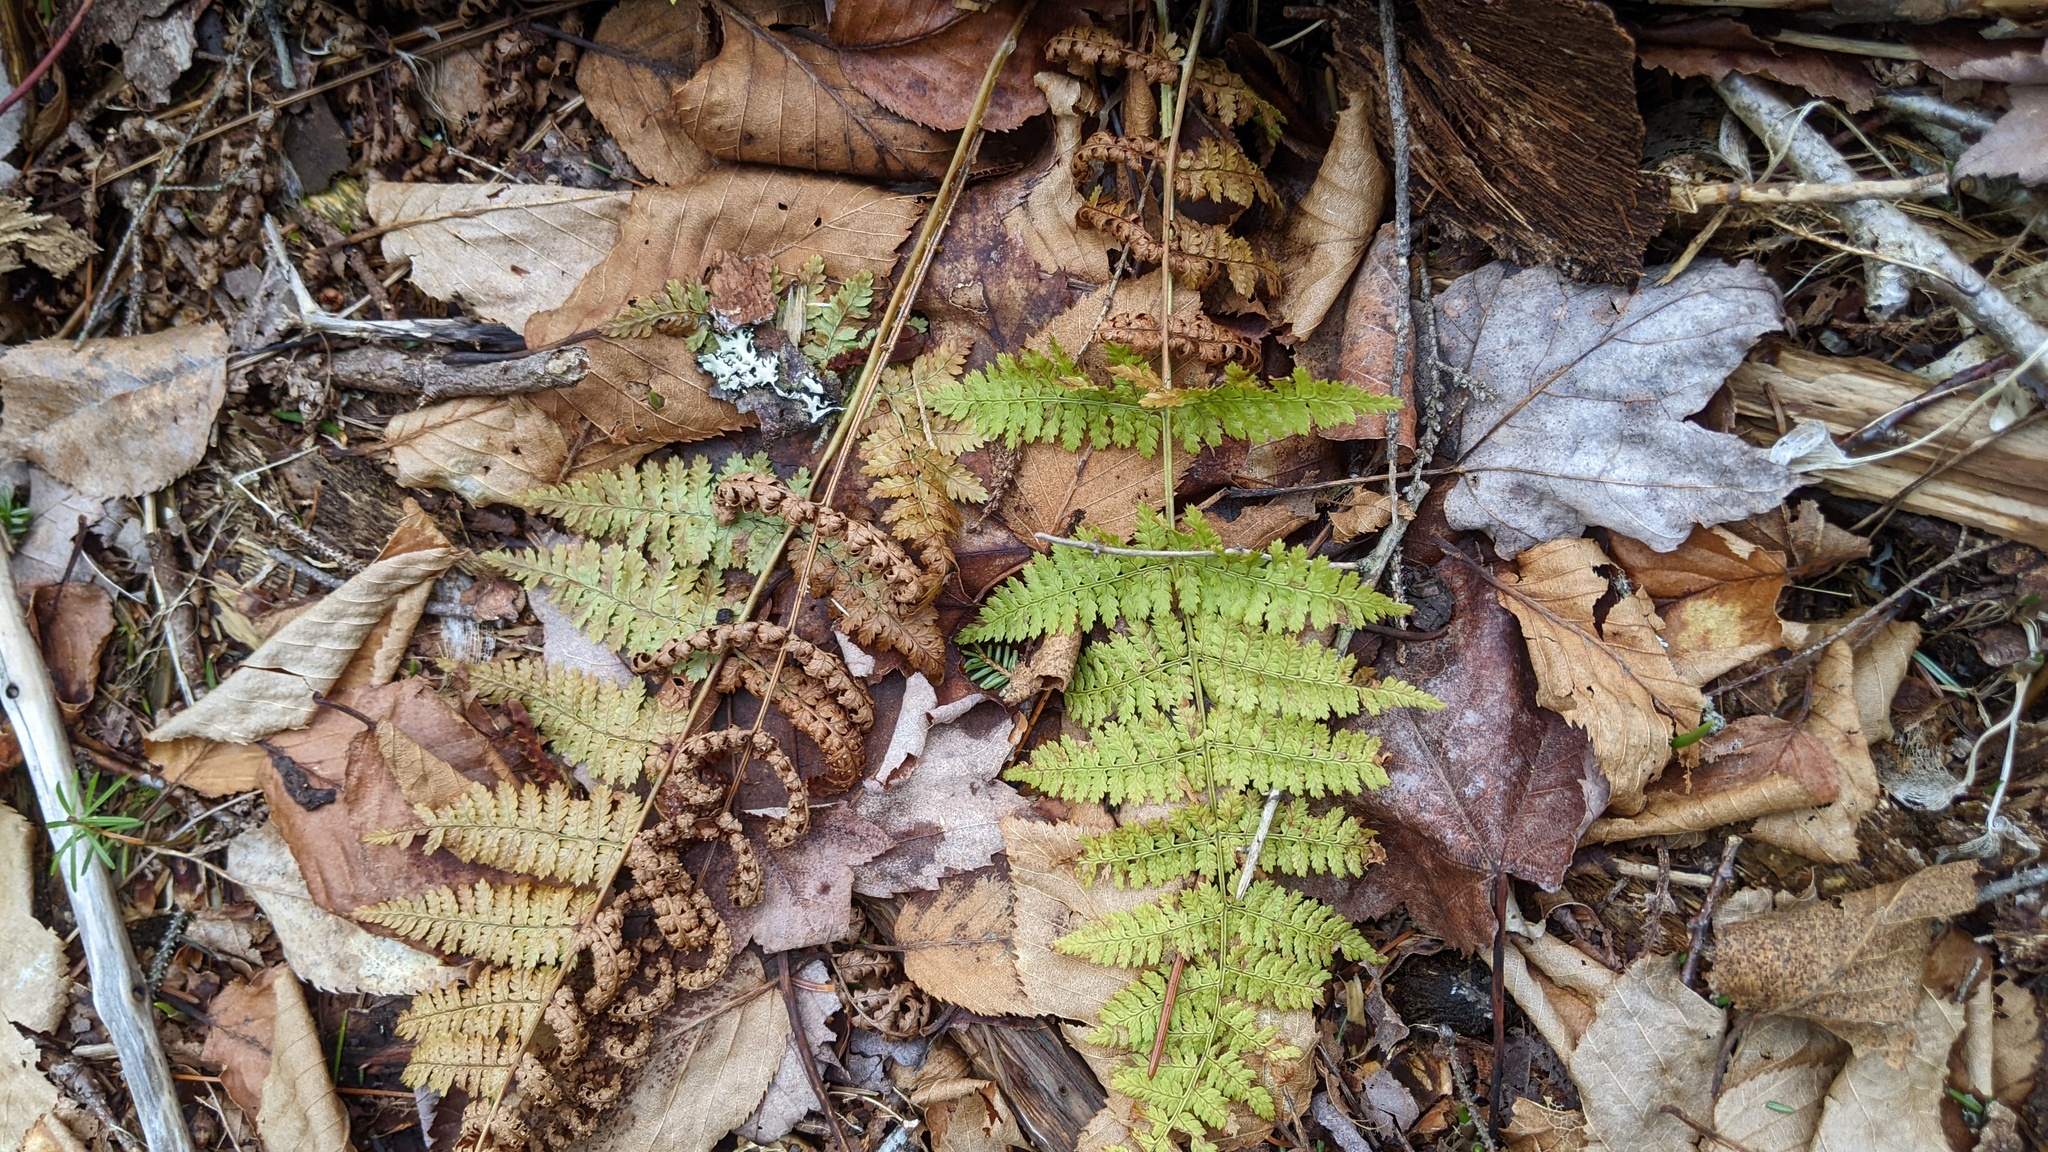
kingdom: Plantae
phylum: Tracheophyta
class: Polypodiopsida
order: Polypodiales
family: Dryopteridaceae
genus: Dryopteris
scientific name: Dryopteris intermedia
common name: Evergreen wood fern
